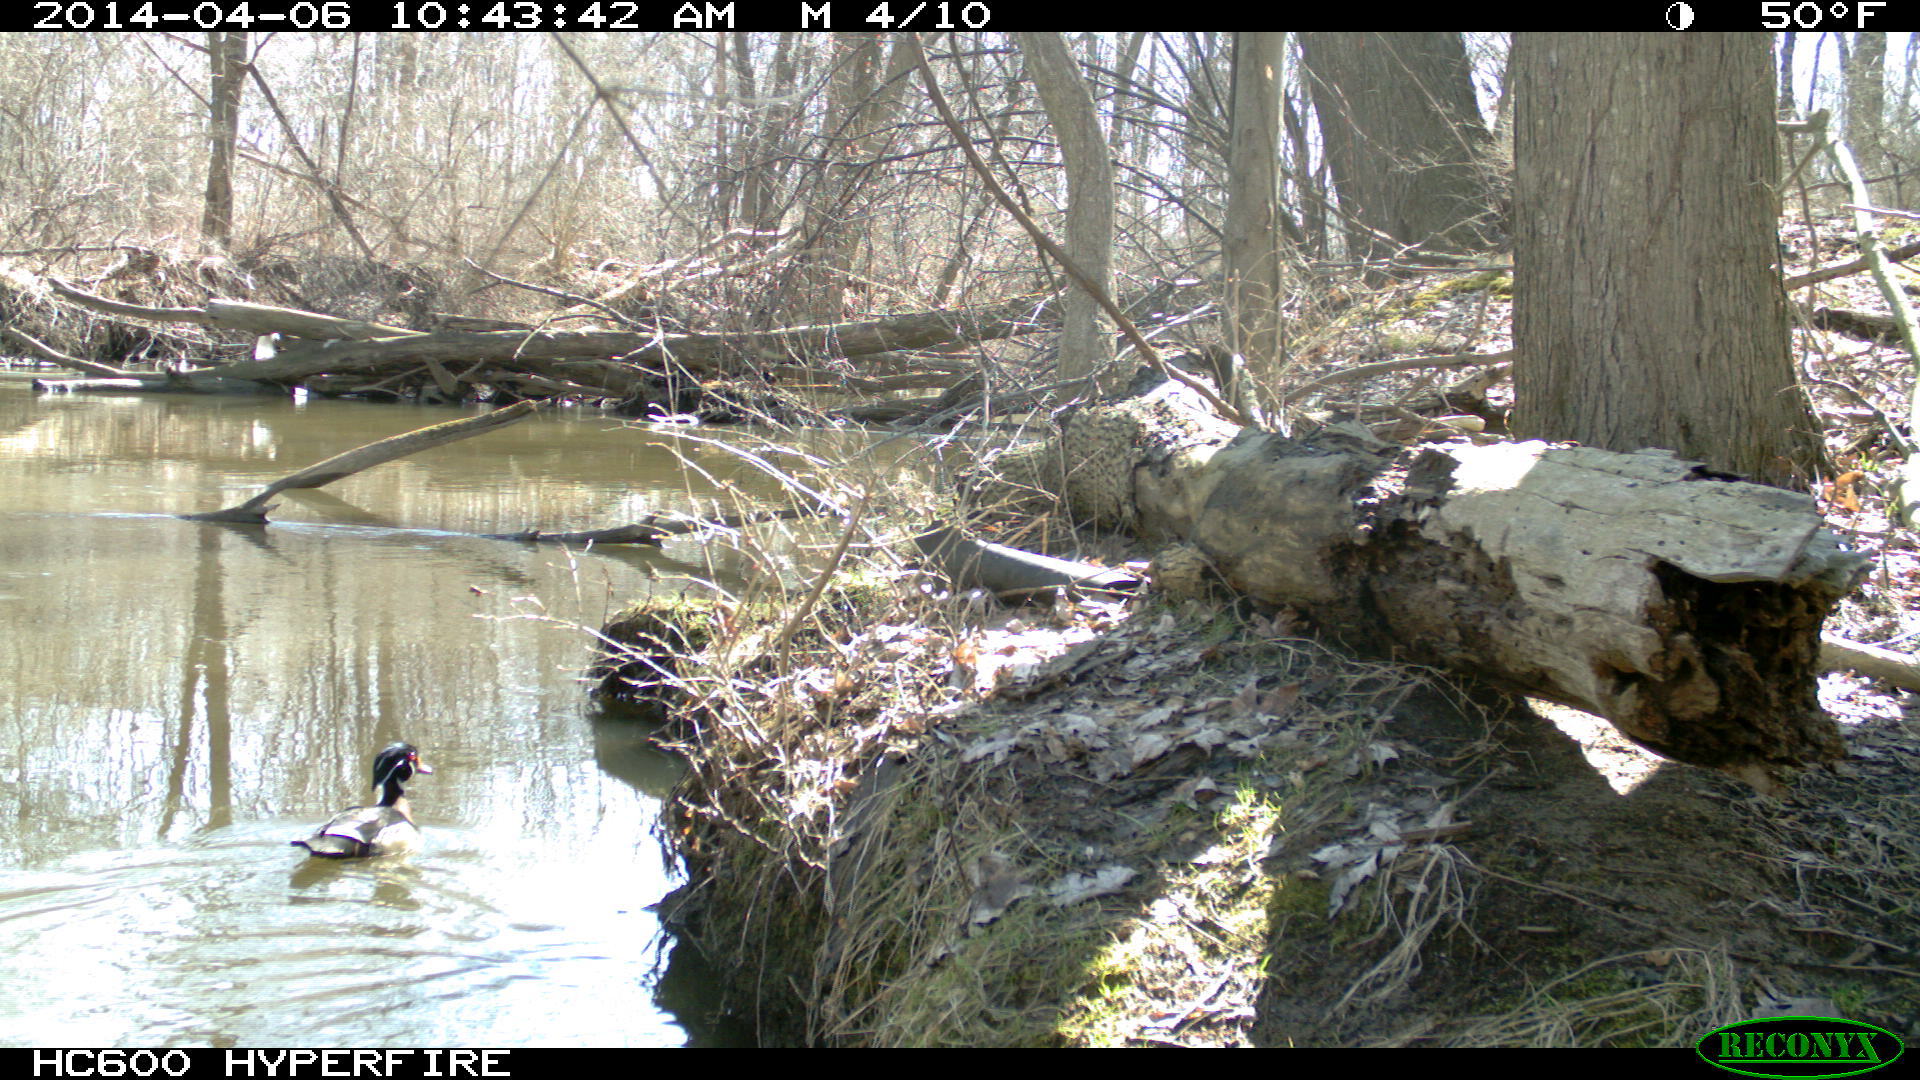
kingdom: Animalia
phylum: Chordata
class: Aves
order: Anseriformes
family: Anatidae
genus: Aix
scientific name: Aix sponsa
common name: Wood duck
